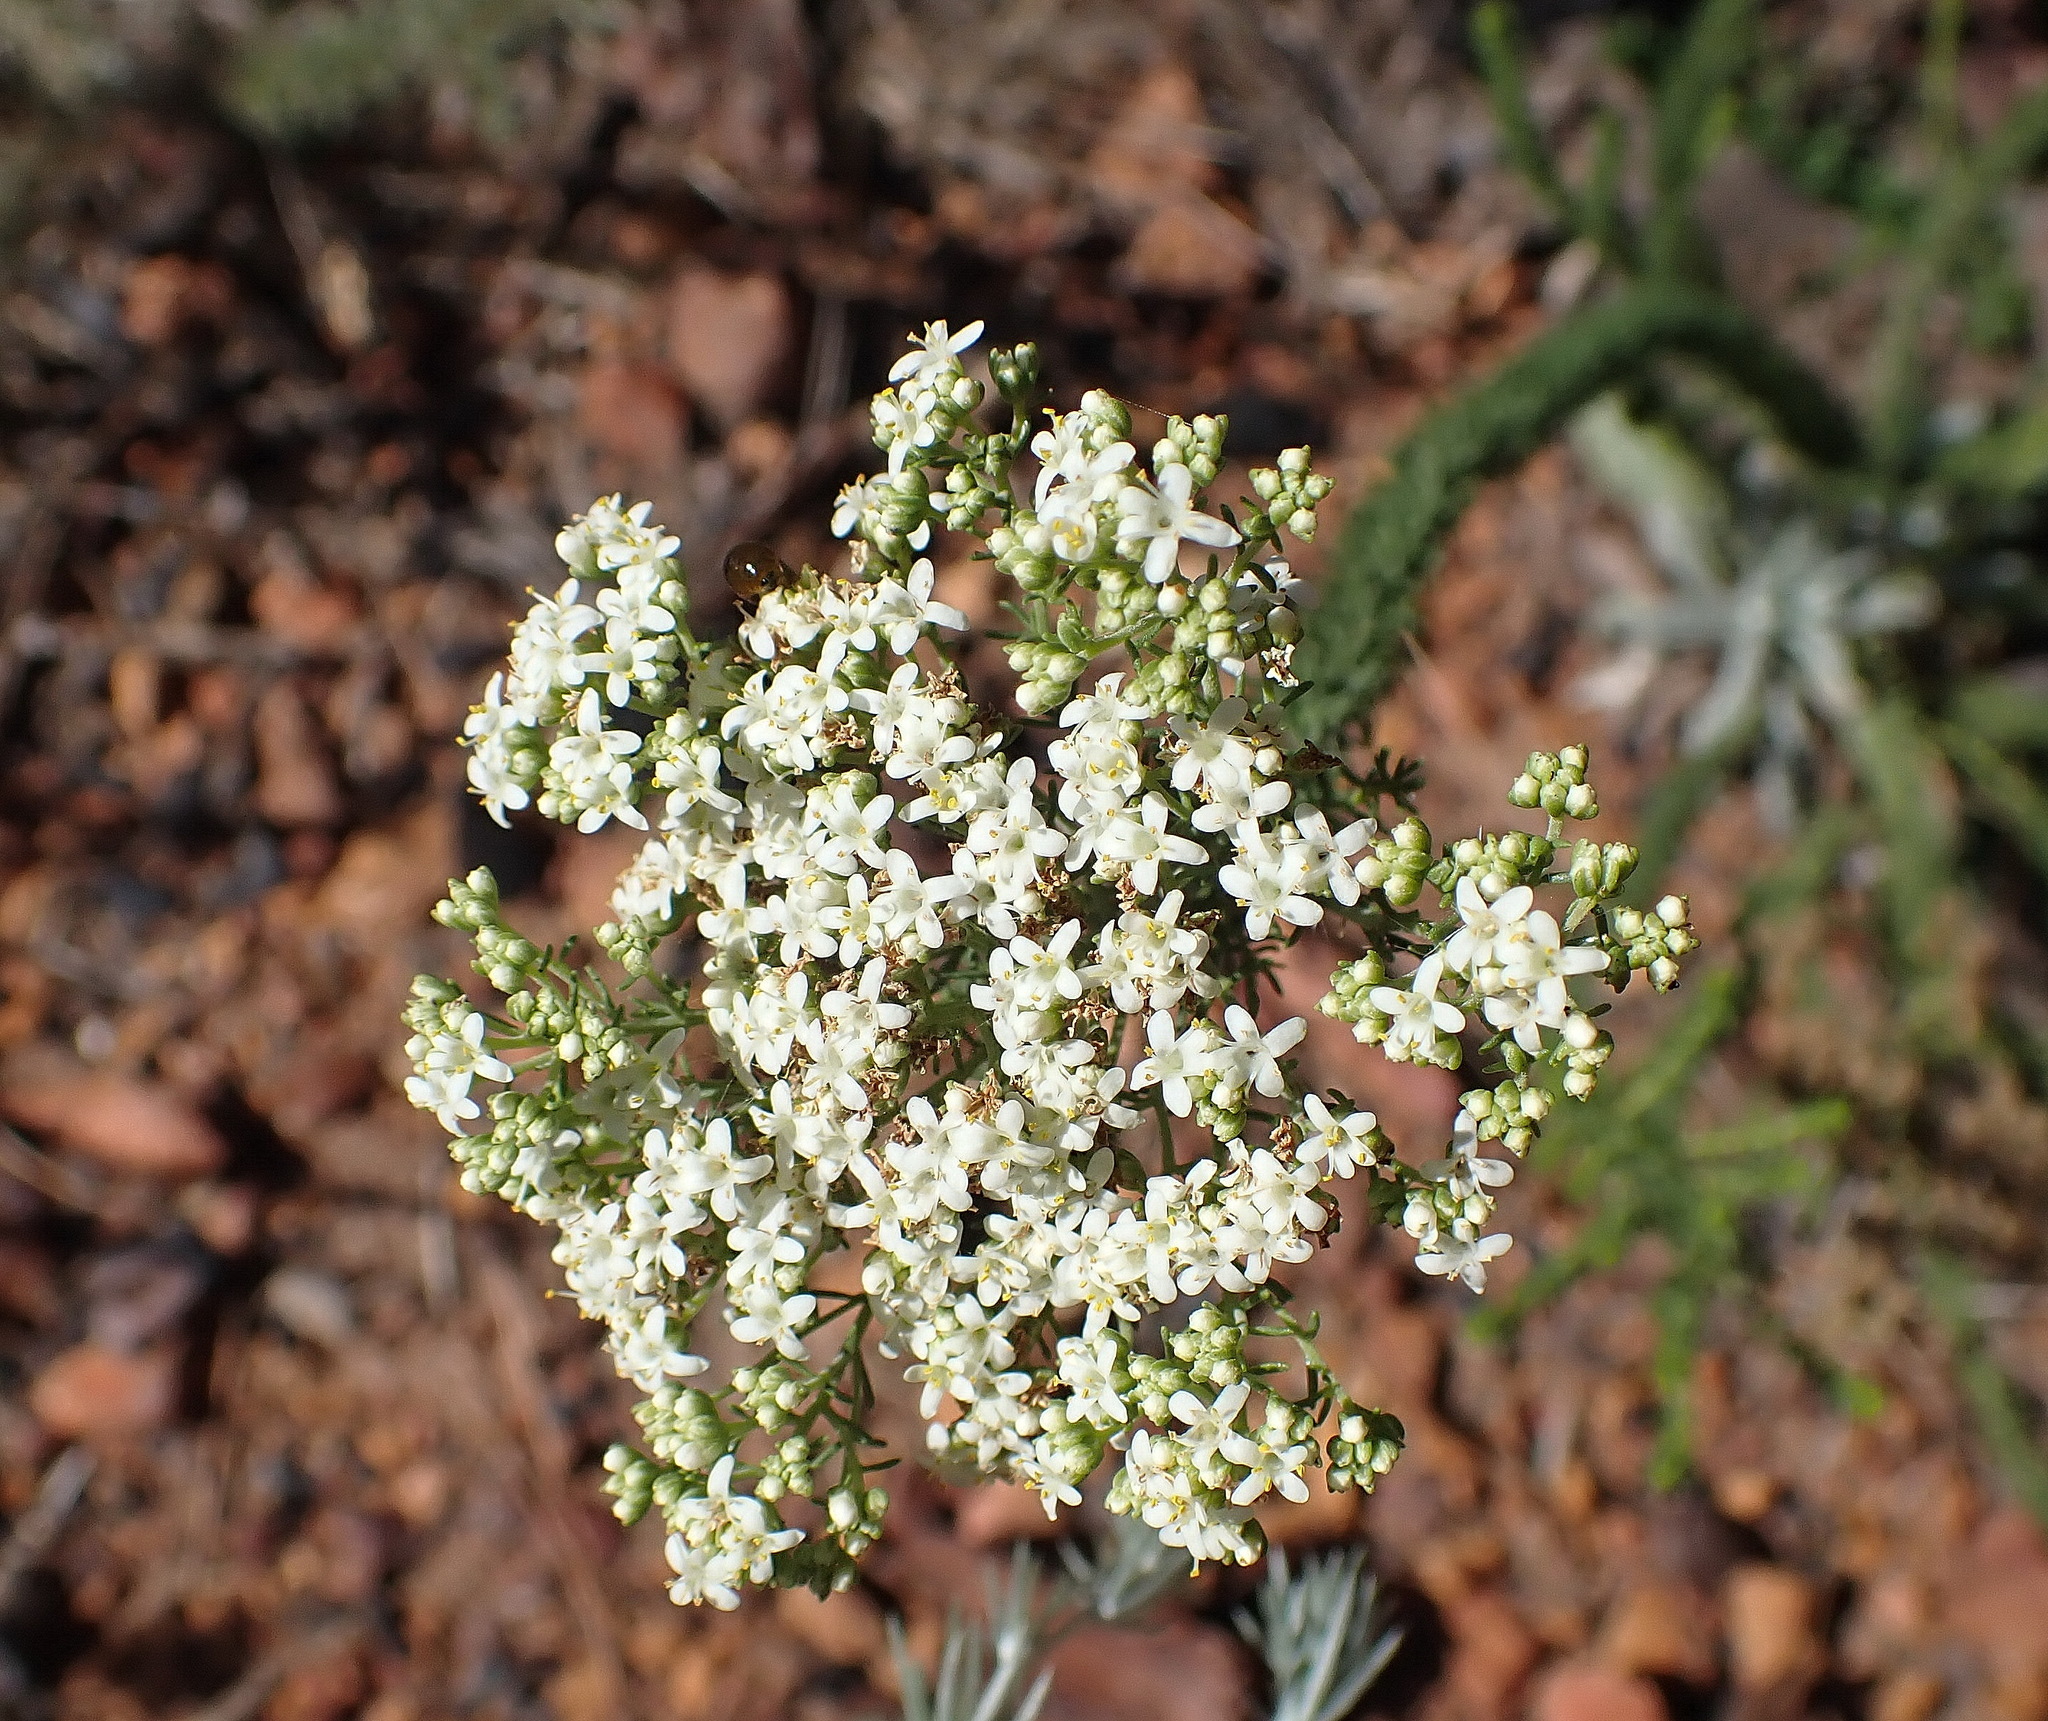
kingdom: Plantae
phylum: Tracheophyta
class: Magnoliopsida
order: Lamiales
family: Scrophulariaceae
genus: Selago
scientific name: Selago corymbosa
